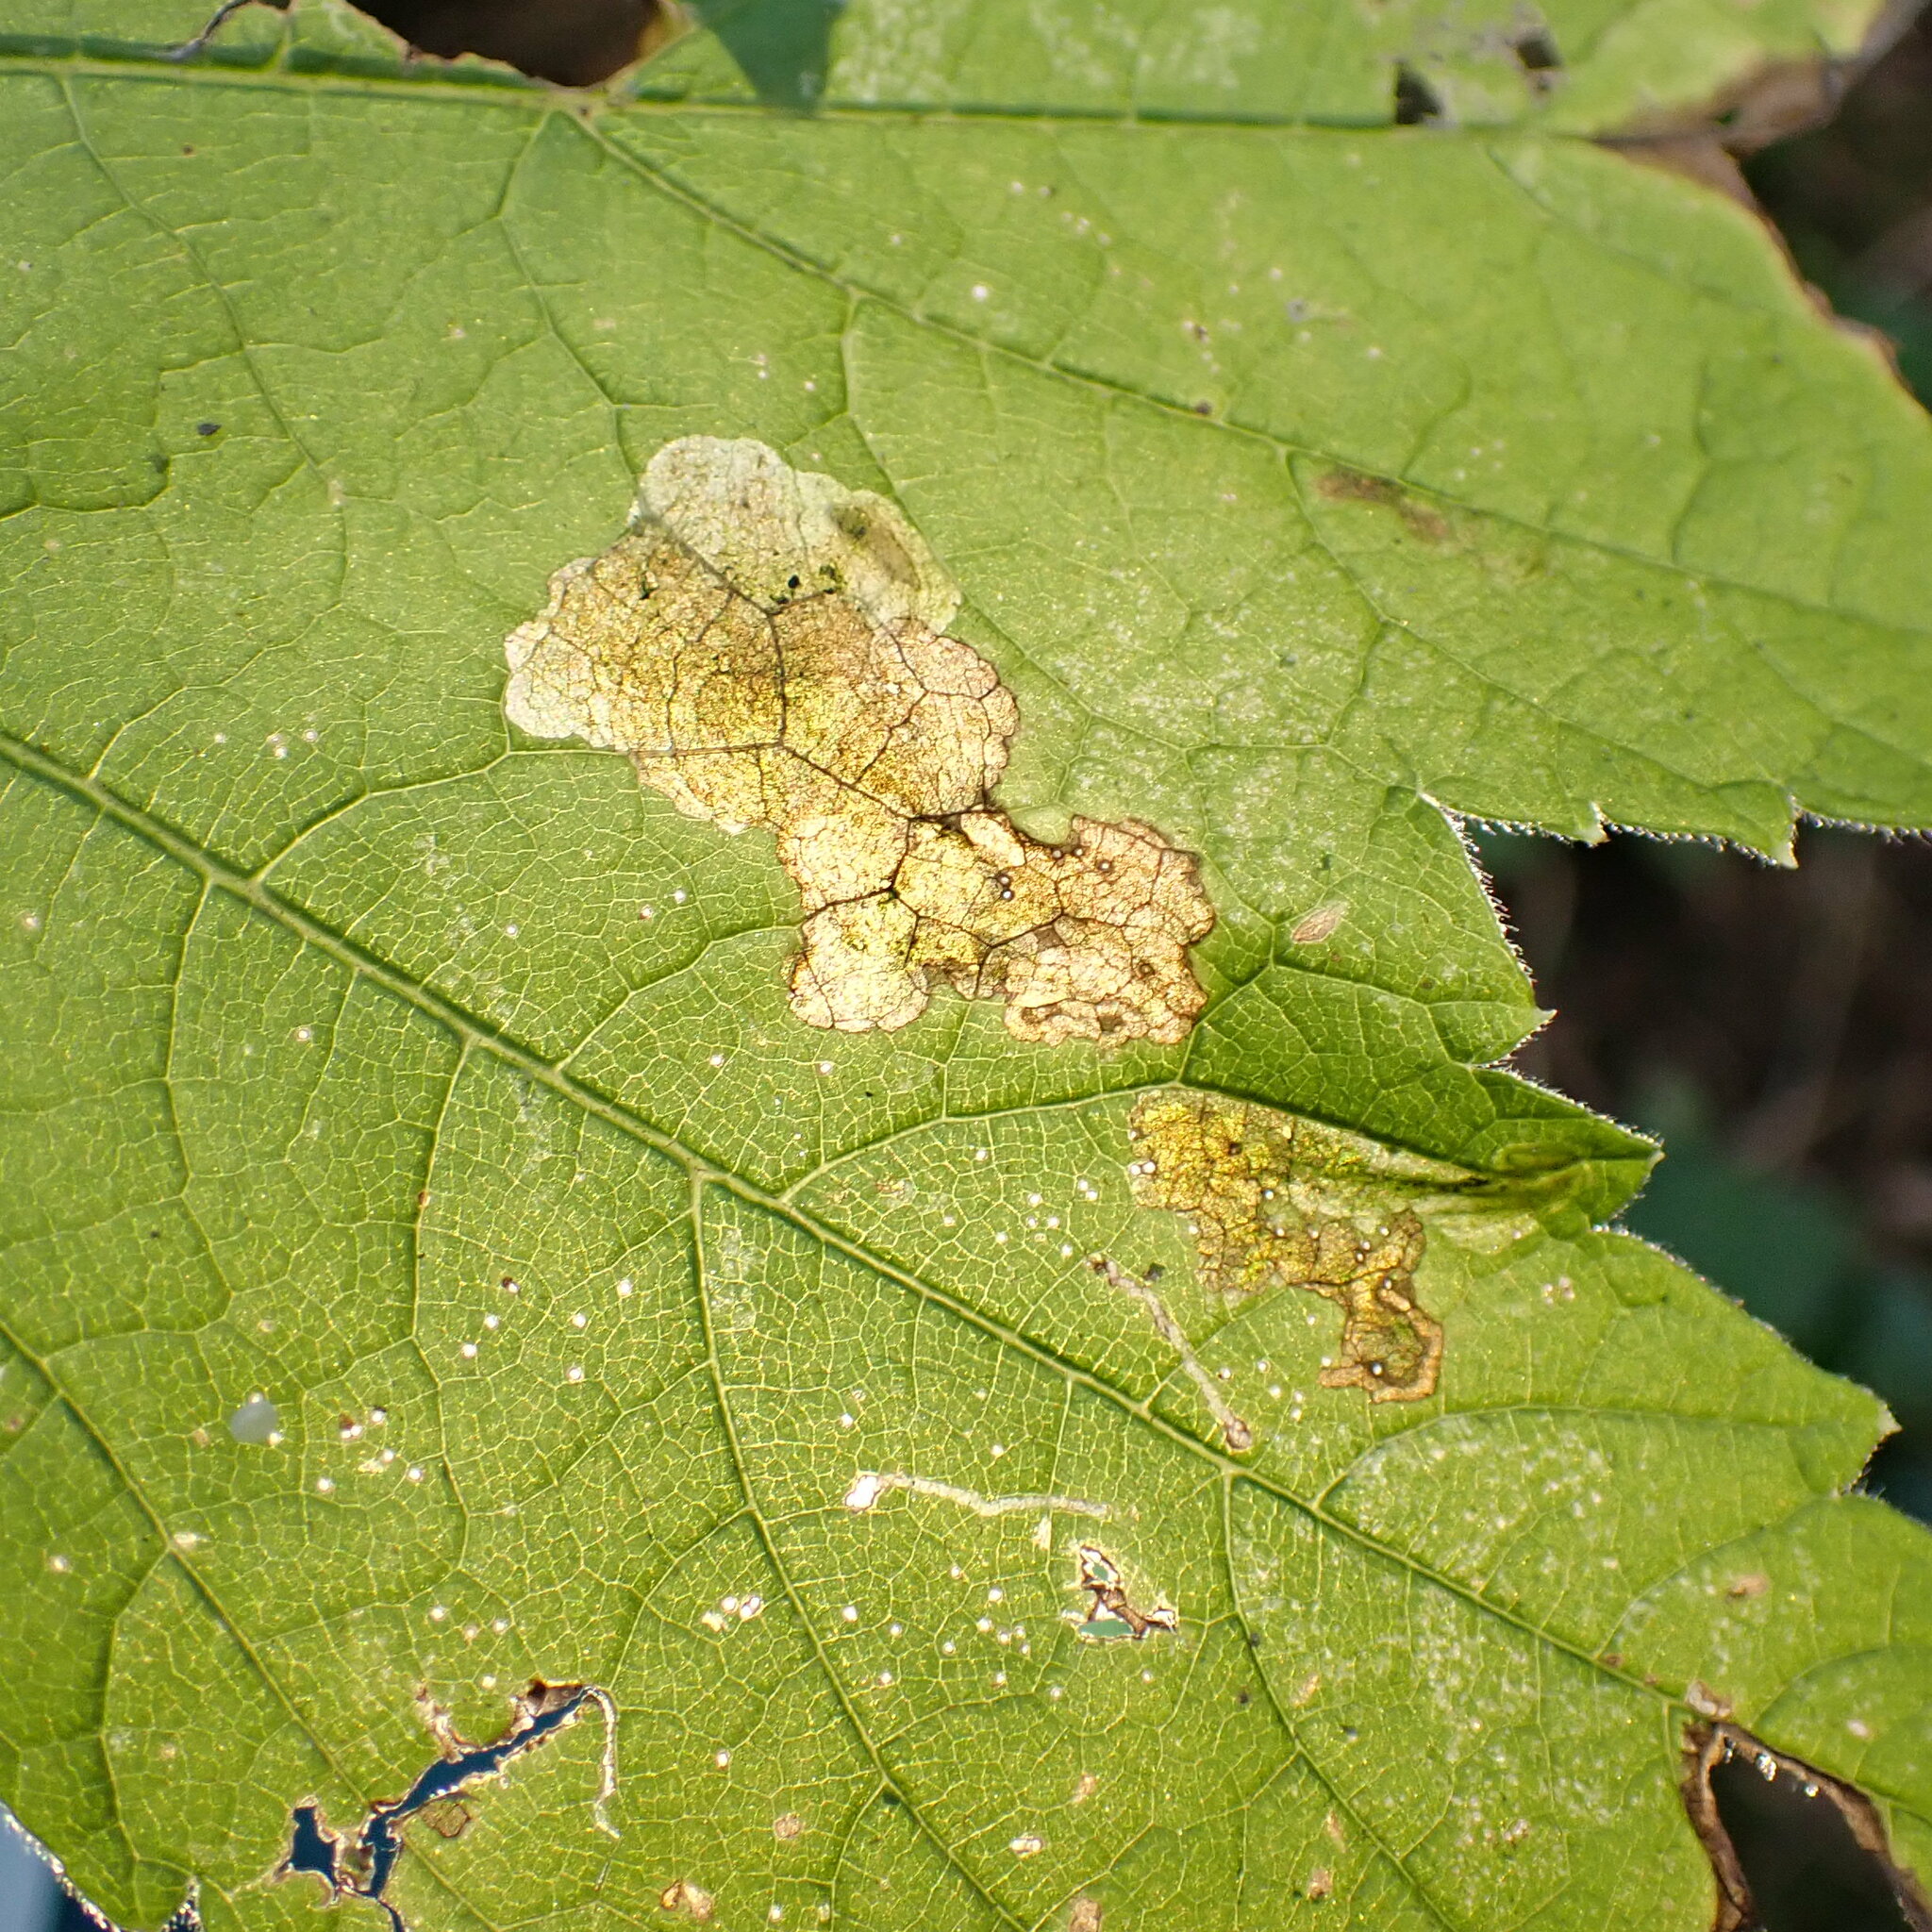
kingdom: Animalia
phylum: Arthropoda
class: Insecta
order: Diptera
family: Tephritidae
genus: Euleia
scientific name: Euleia fratria
